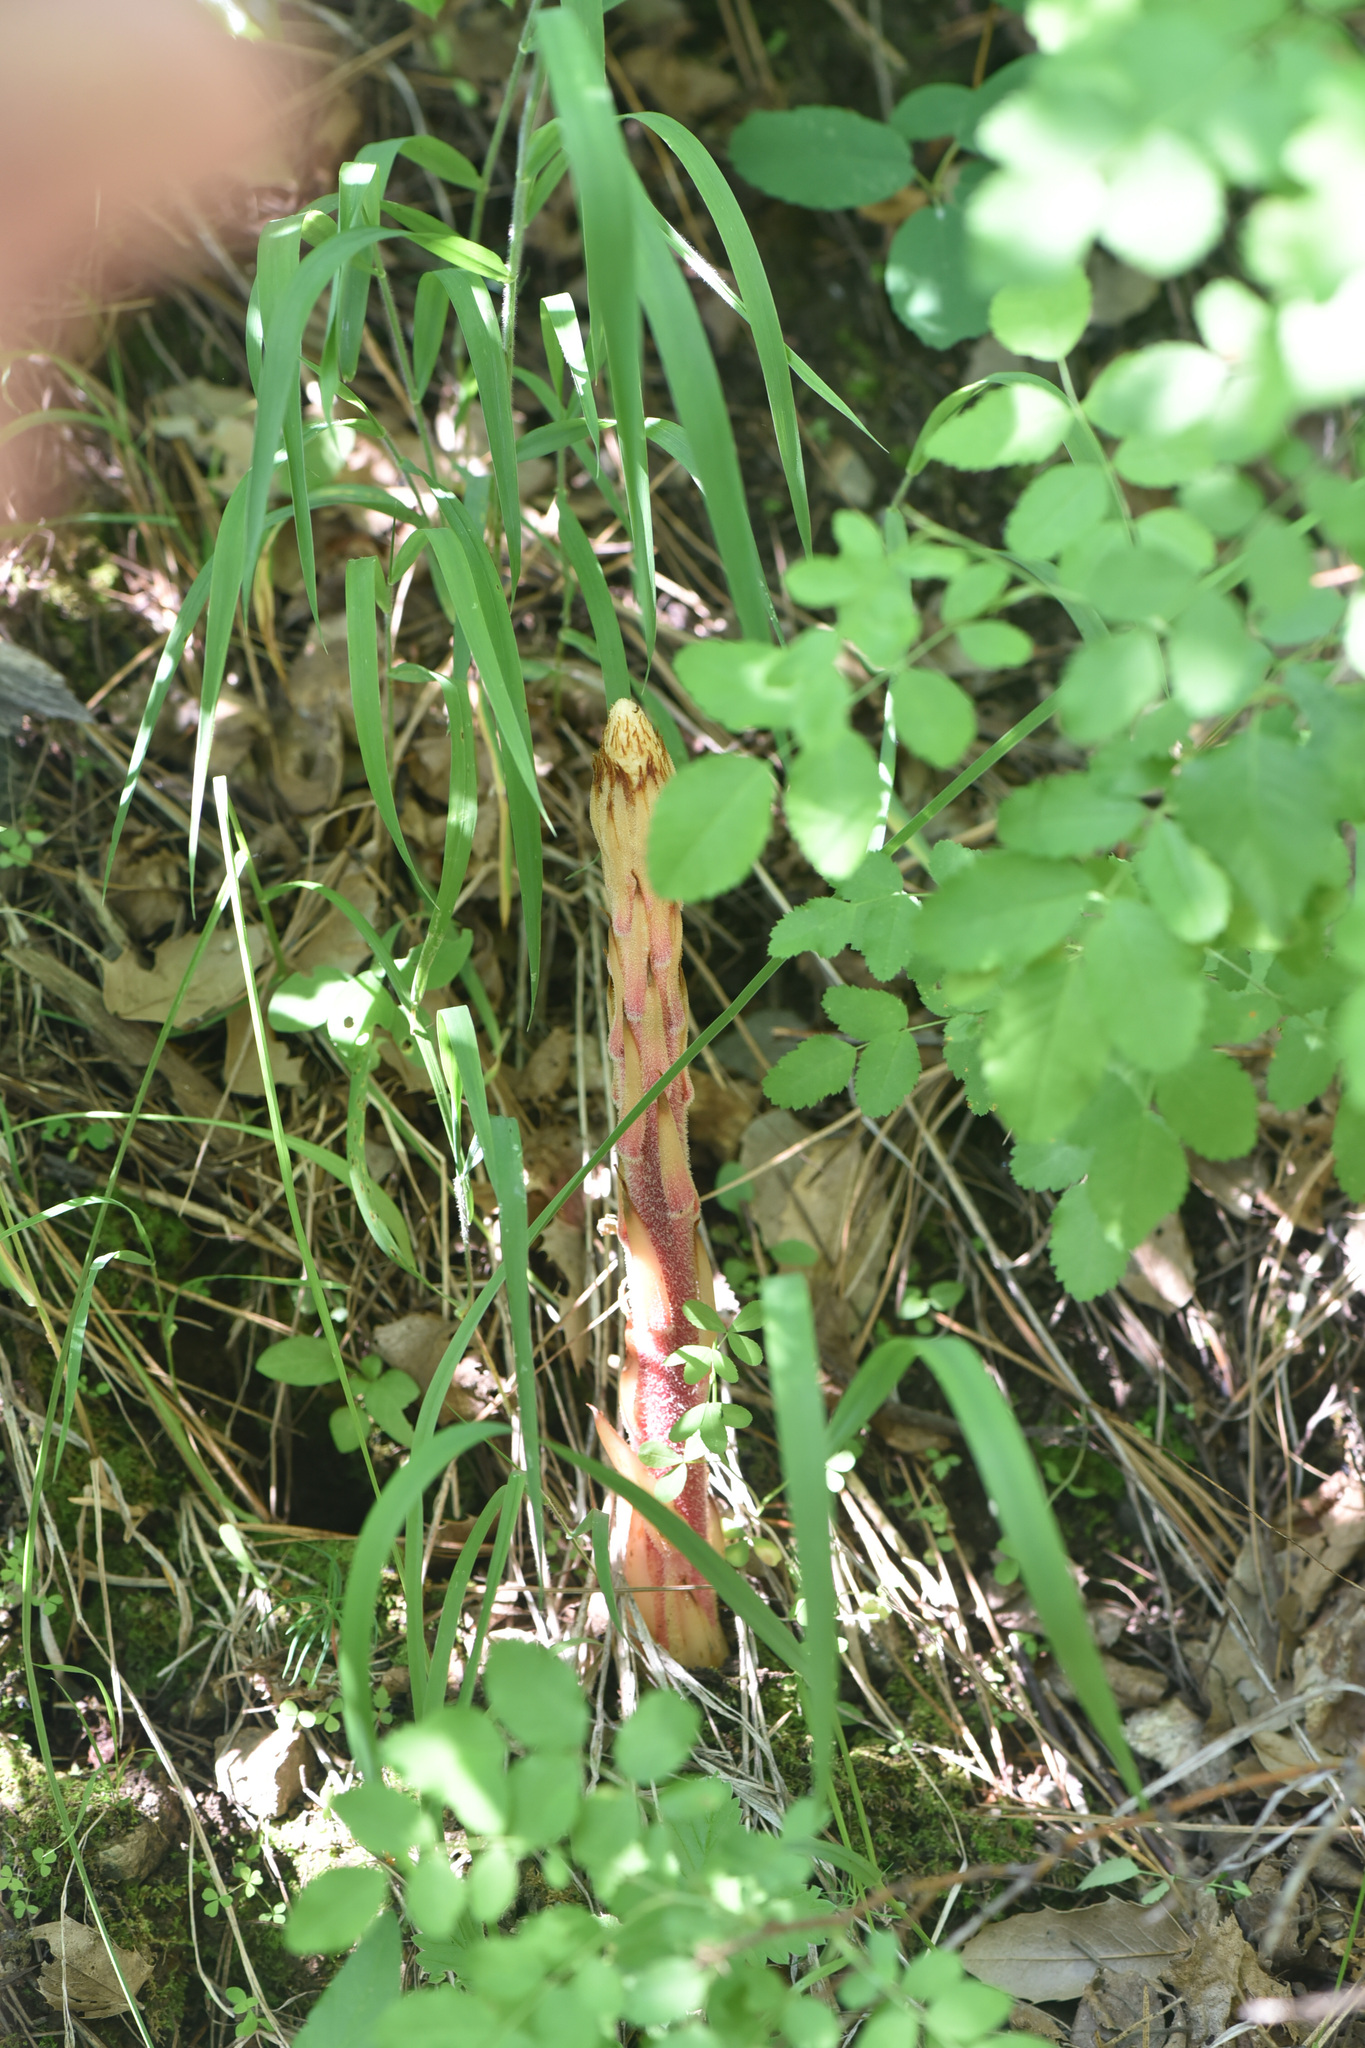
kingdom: Plantae
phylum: Tracheophyta
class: Magnoliopsida
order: Ericales
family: Ericaceae
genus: Pterospora
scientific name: Pterospora andromedea
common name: Giant bird's-nest
